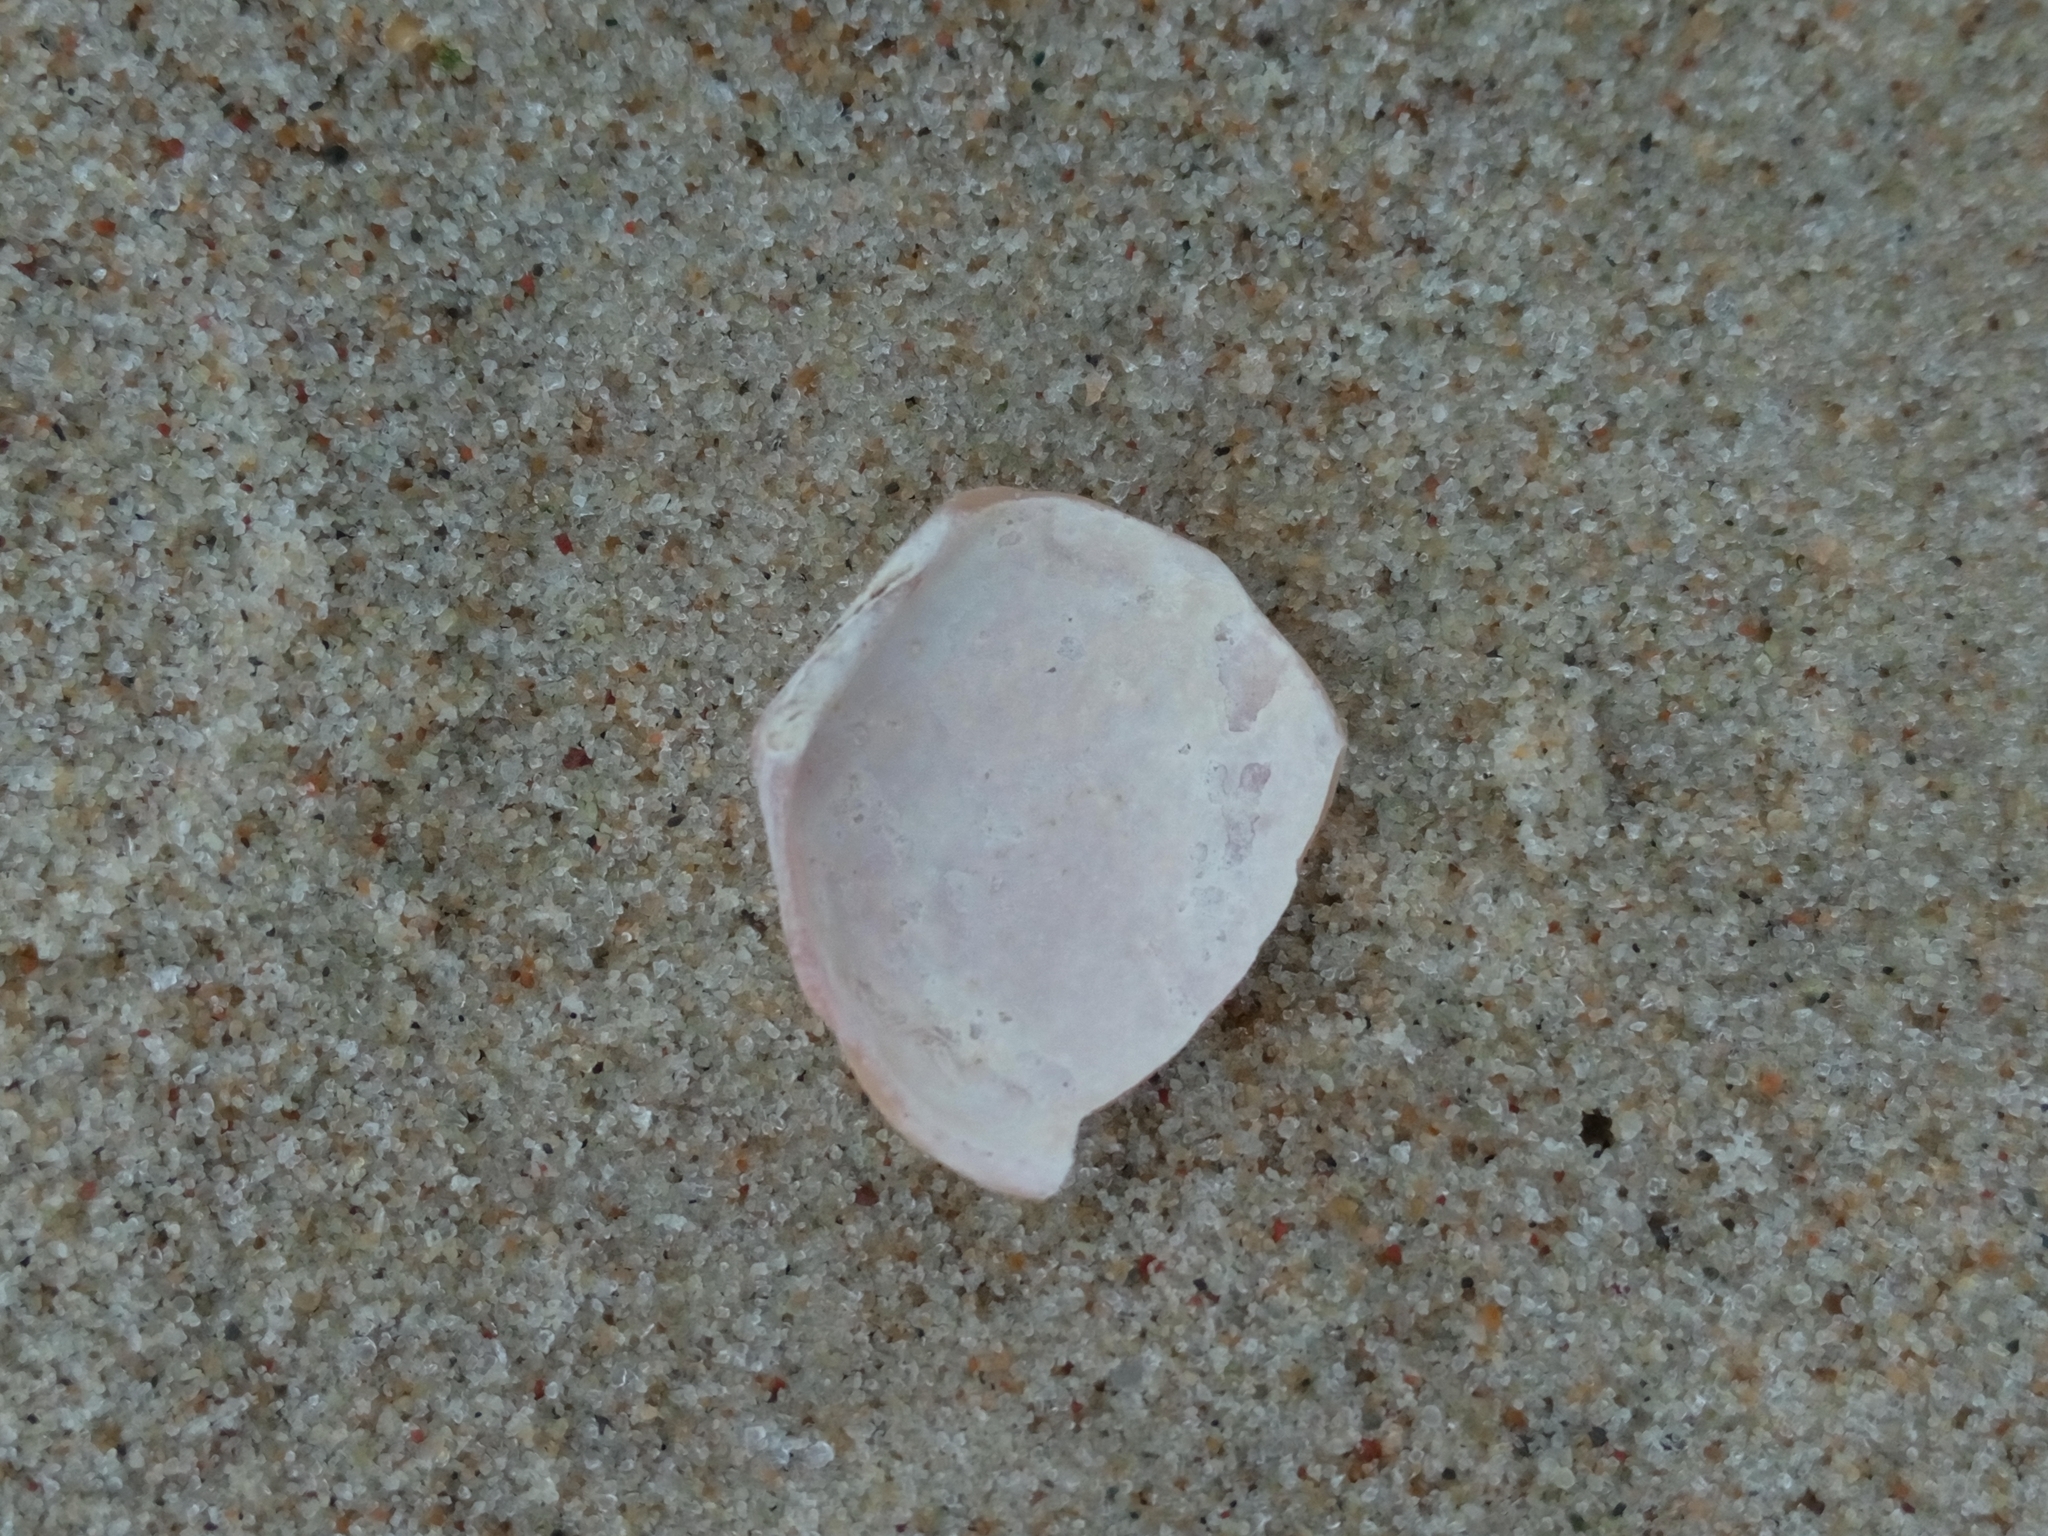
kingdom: Animalia
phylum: Mollusca
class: Bivalvia
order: Cardiida
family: Tellinidae
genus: Macoma
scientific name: Macoma balthica
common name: Baltic tellin
